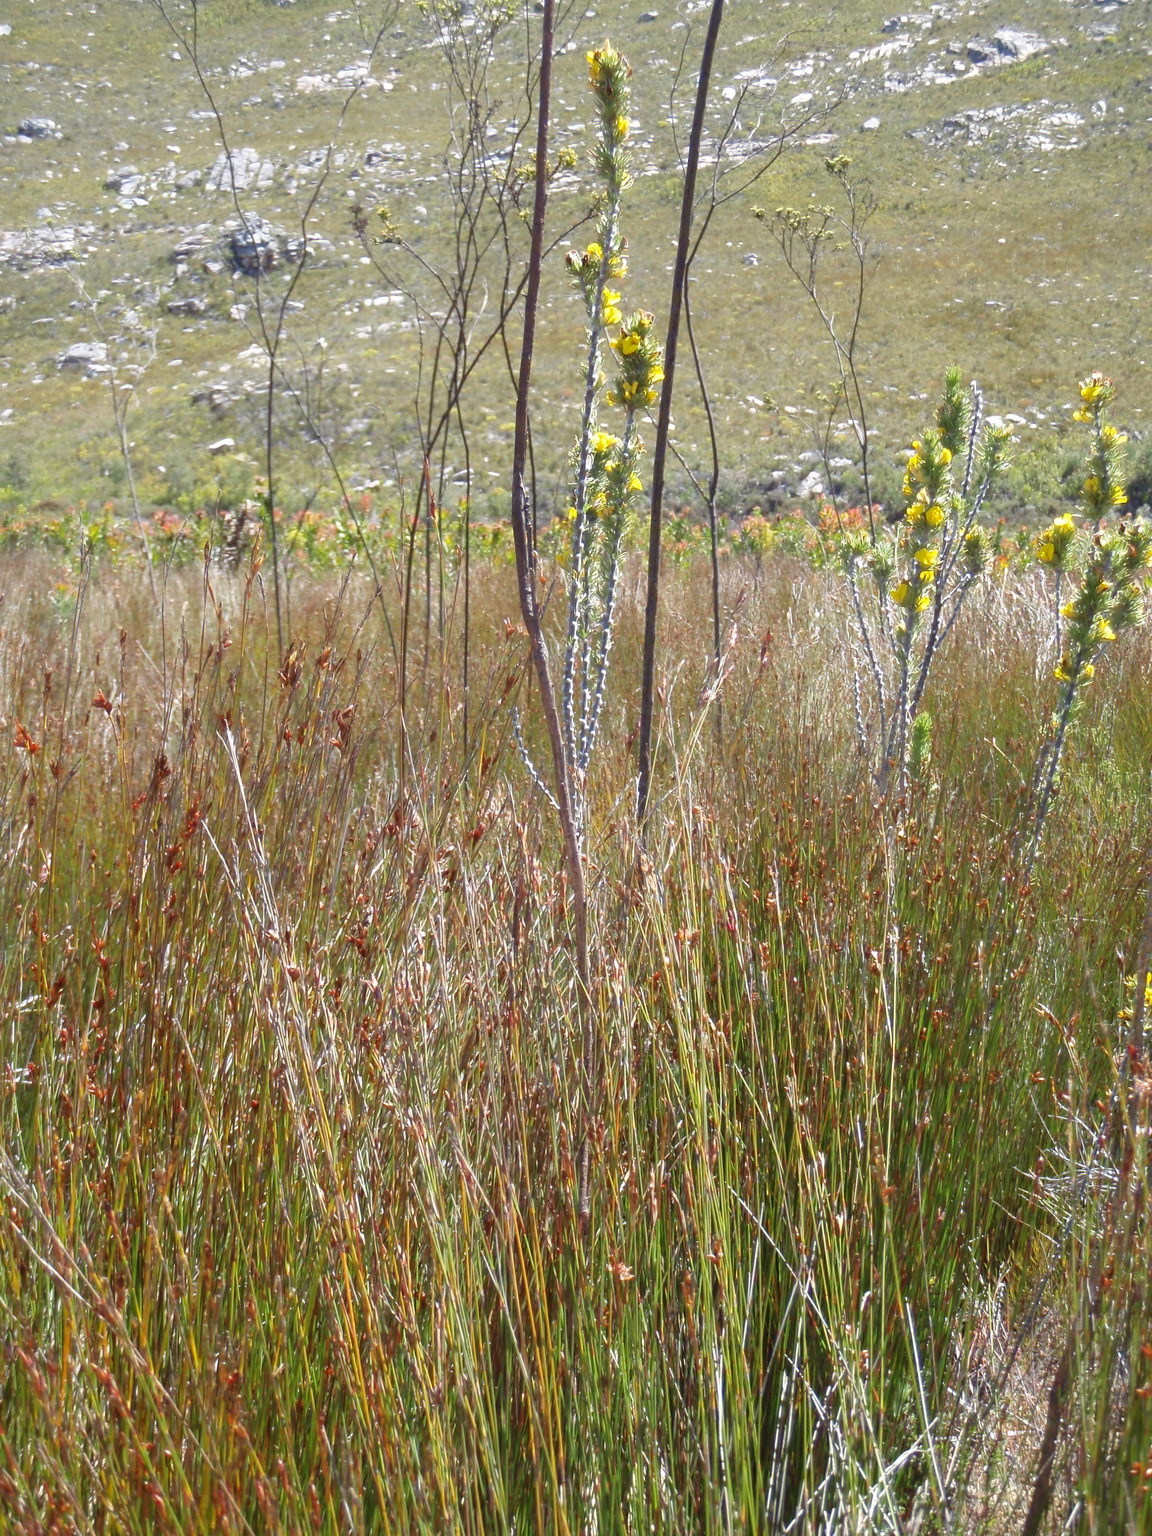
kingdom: Plantae
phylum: Tracheophyta
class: Magnoliopsida
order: Fabales
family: Fabaceae
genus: Aspalathus
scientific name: Aspalathus acanthes
